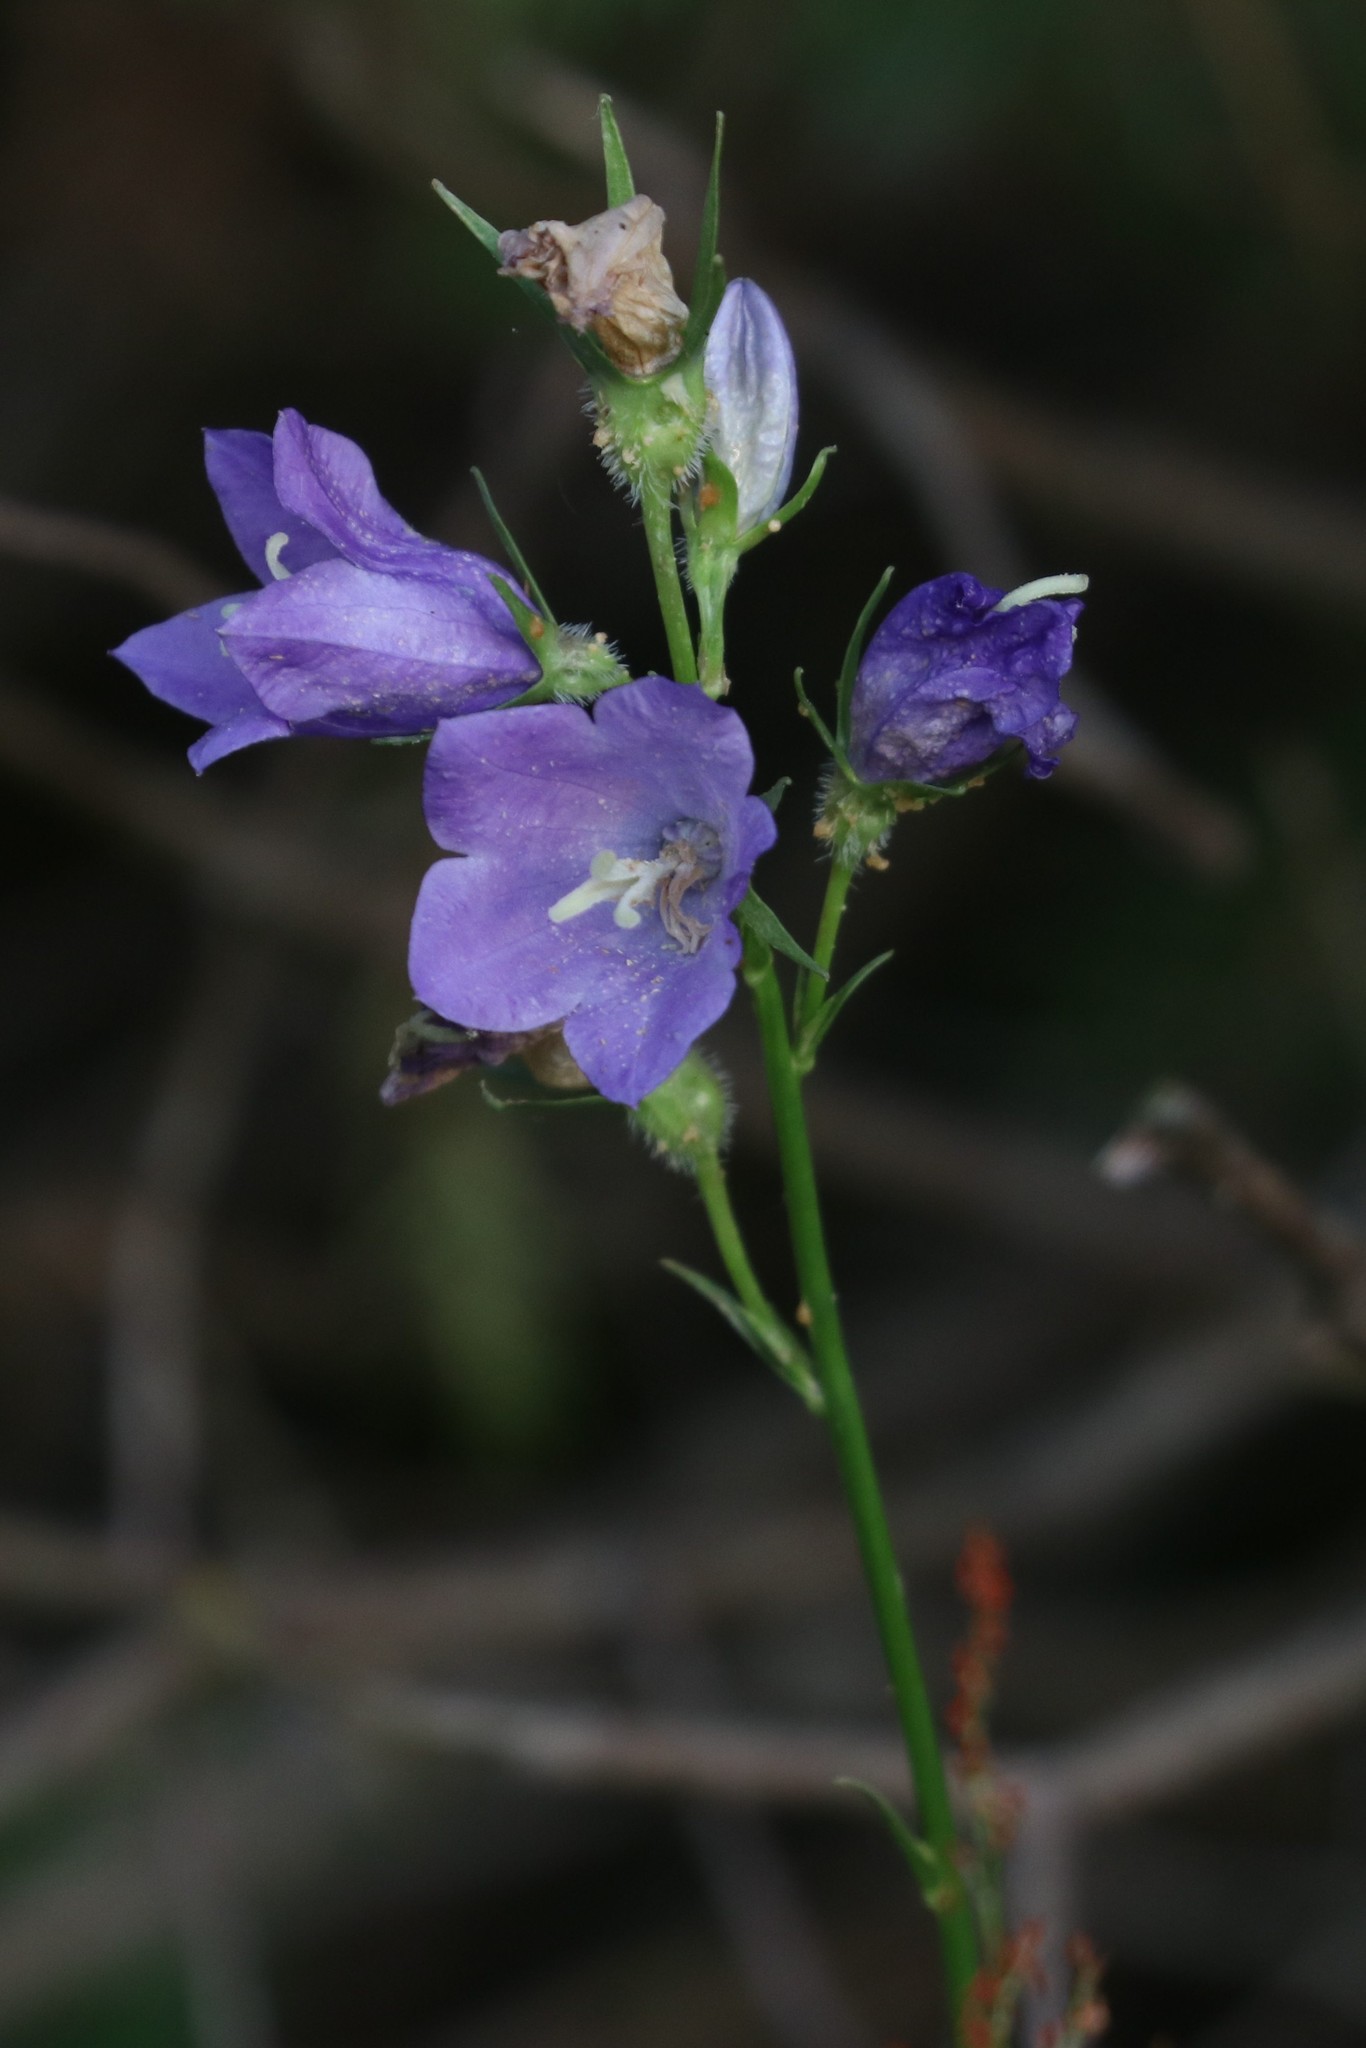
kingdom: Plantae
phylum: Tracheophyta
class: Magnoliopsida
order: Asterales
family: Campanulaceae
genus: Campanula
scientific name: Campanula persicifolia
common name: Peach-leaved bellflower
